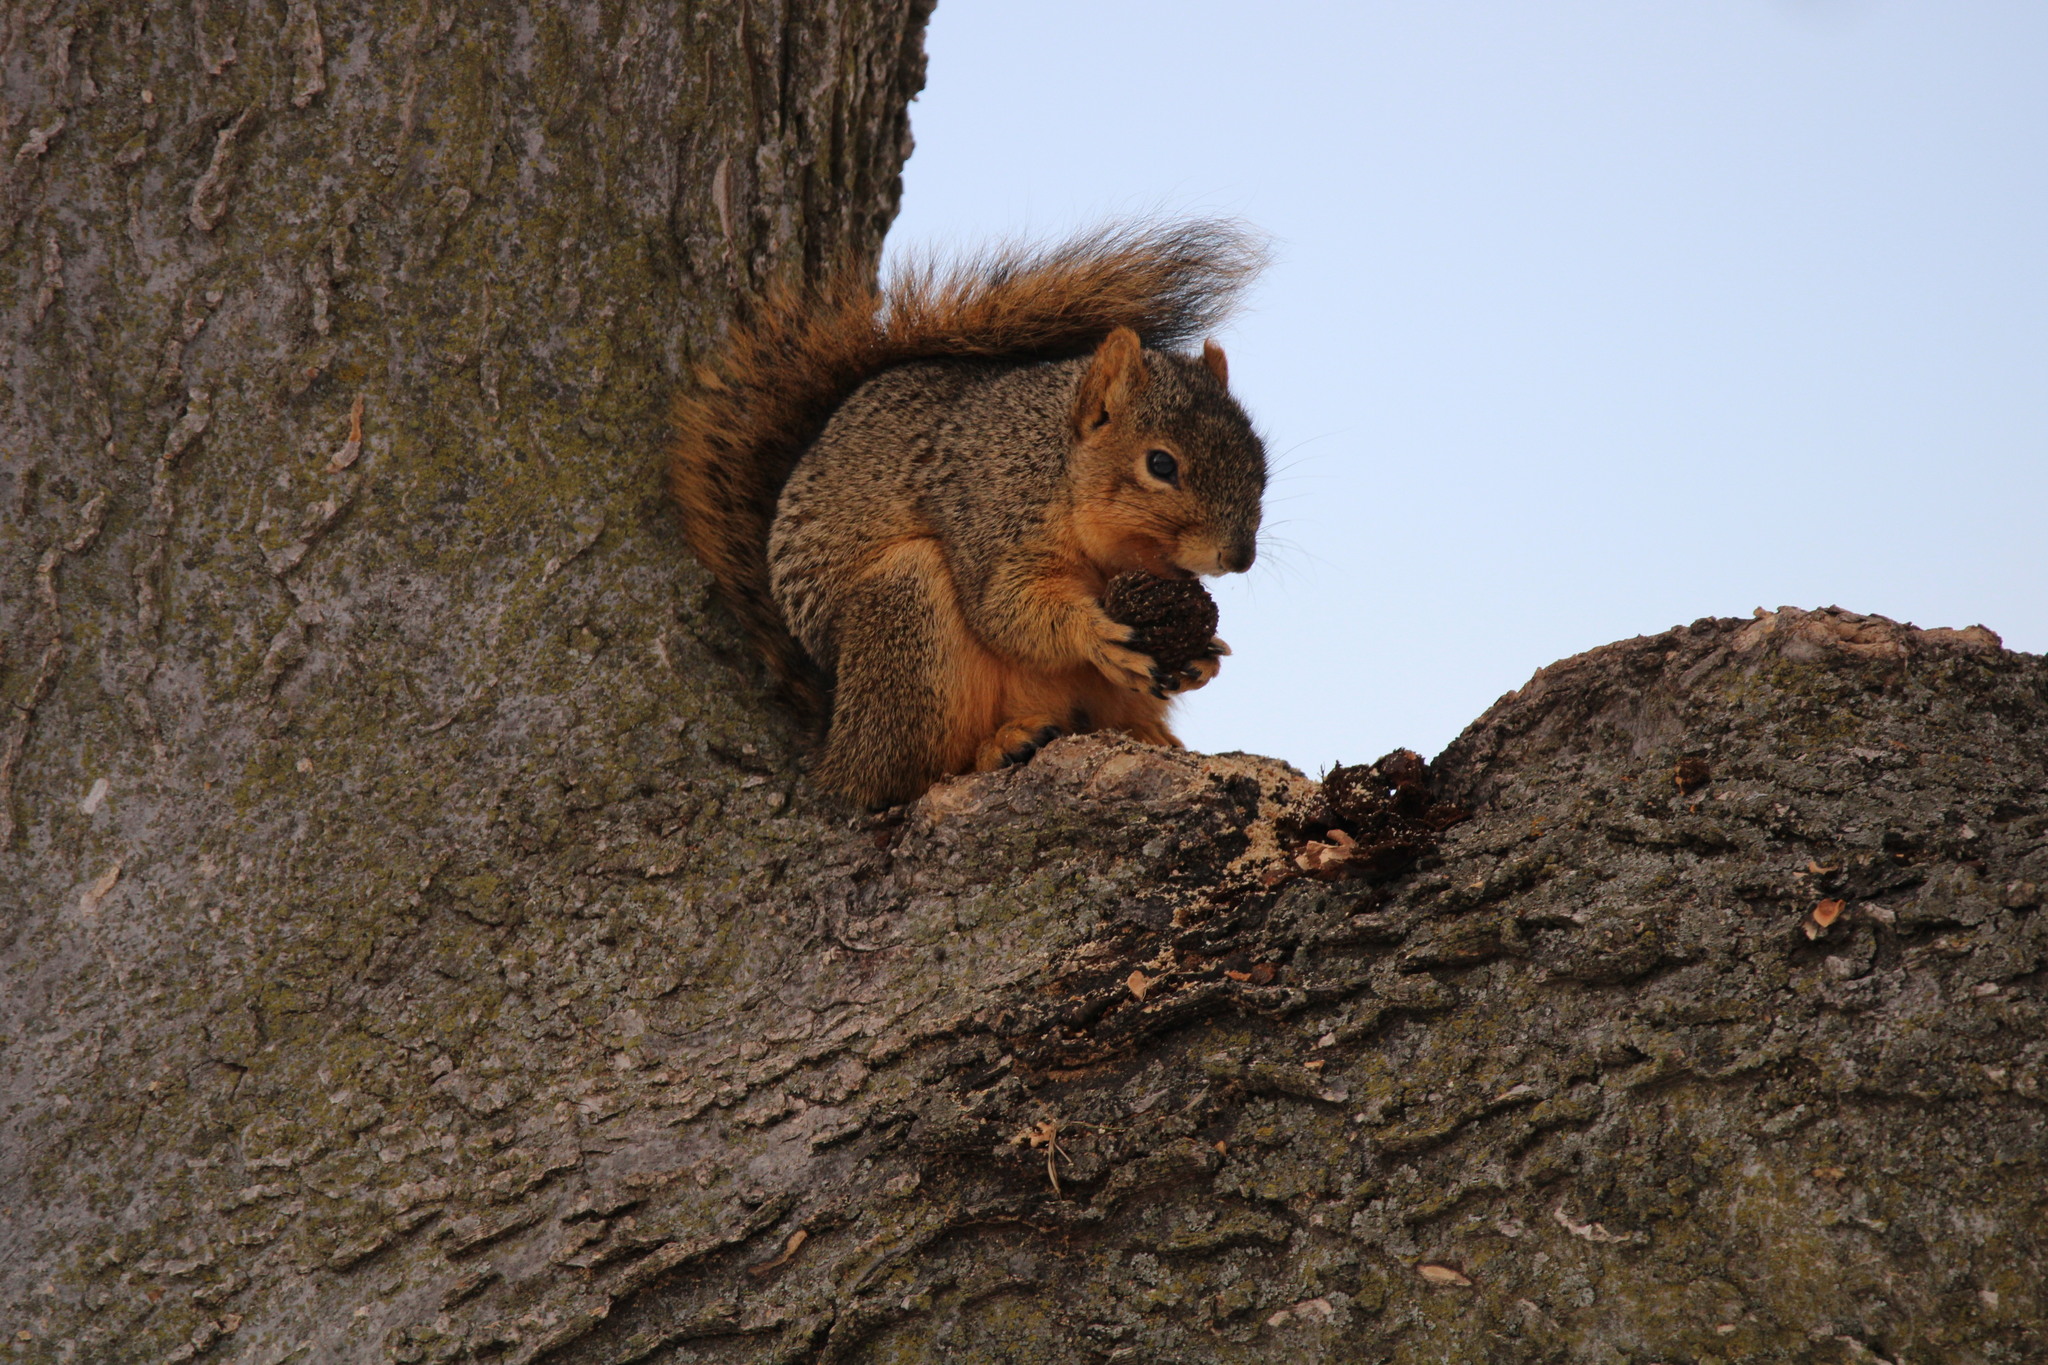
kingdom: Animalia
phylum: Chordata
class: Mammalia
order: Rodentia
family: Sciuridae
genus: Sciurus
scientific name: Sciurus niger
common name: Fox squirrel
